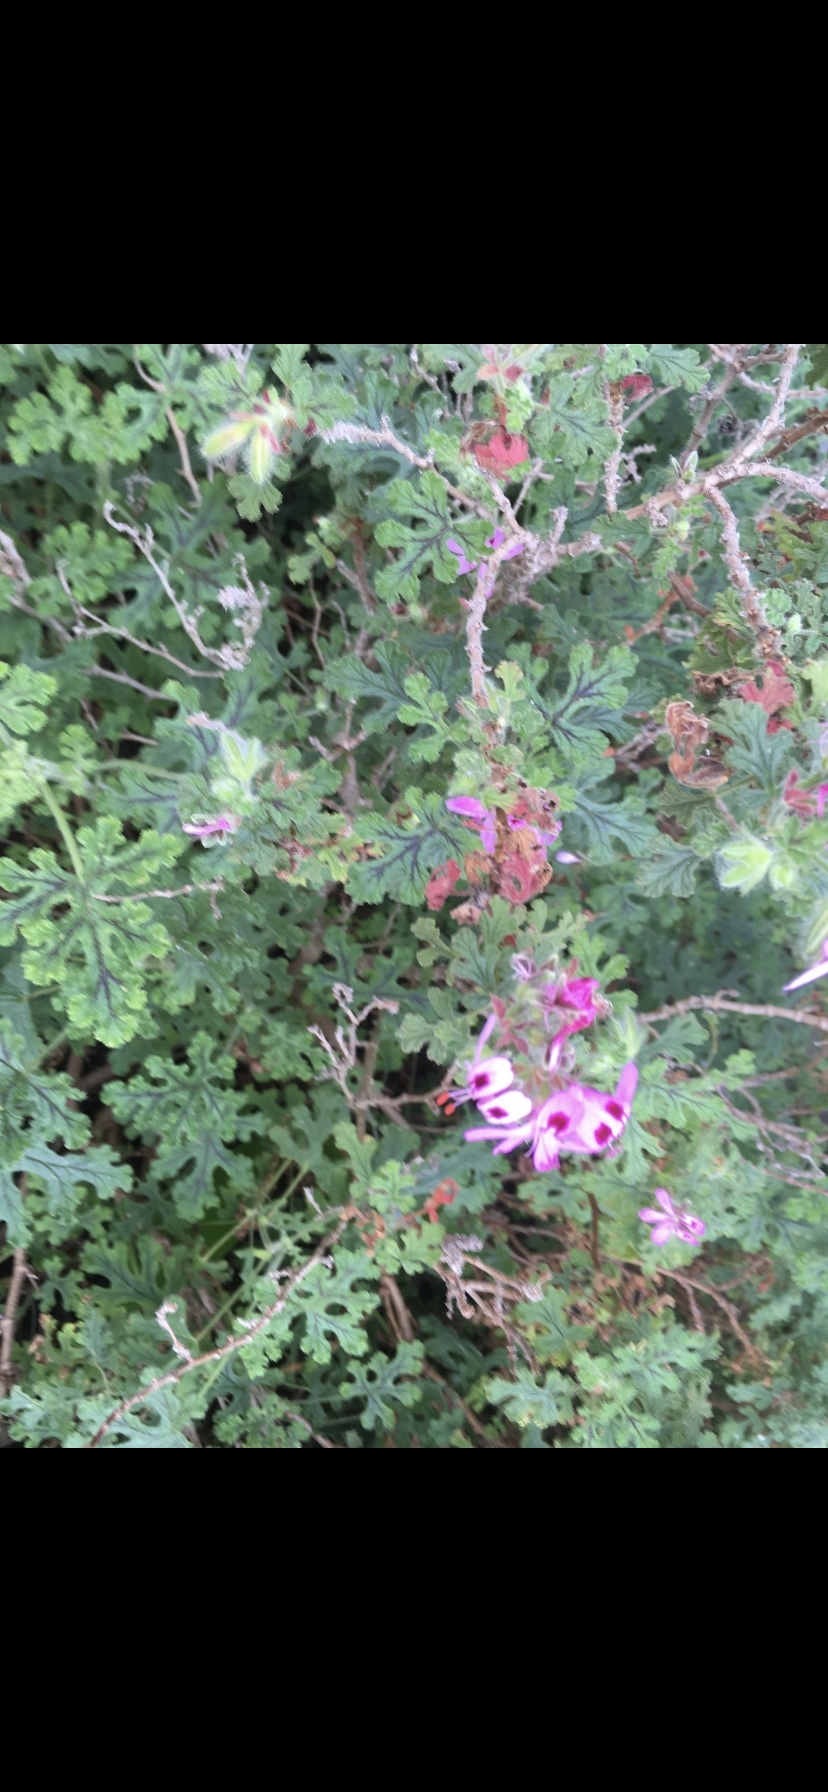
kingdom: Plantae
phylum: Tracheophyta
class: Magnoliopsida
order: Geraniales
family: Geraniaceae
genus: Pelargonium
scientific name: Pelargonium quercifolium
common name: Oakleaf geranium
